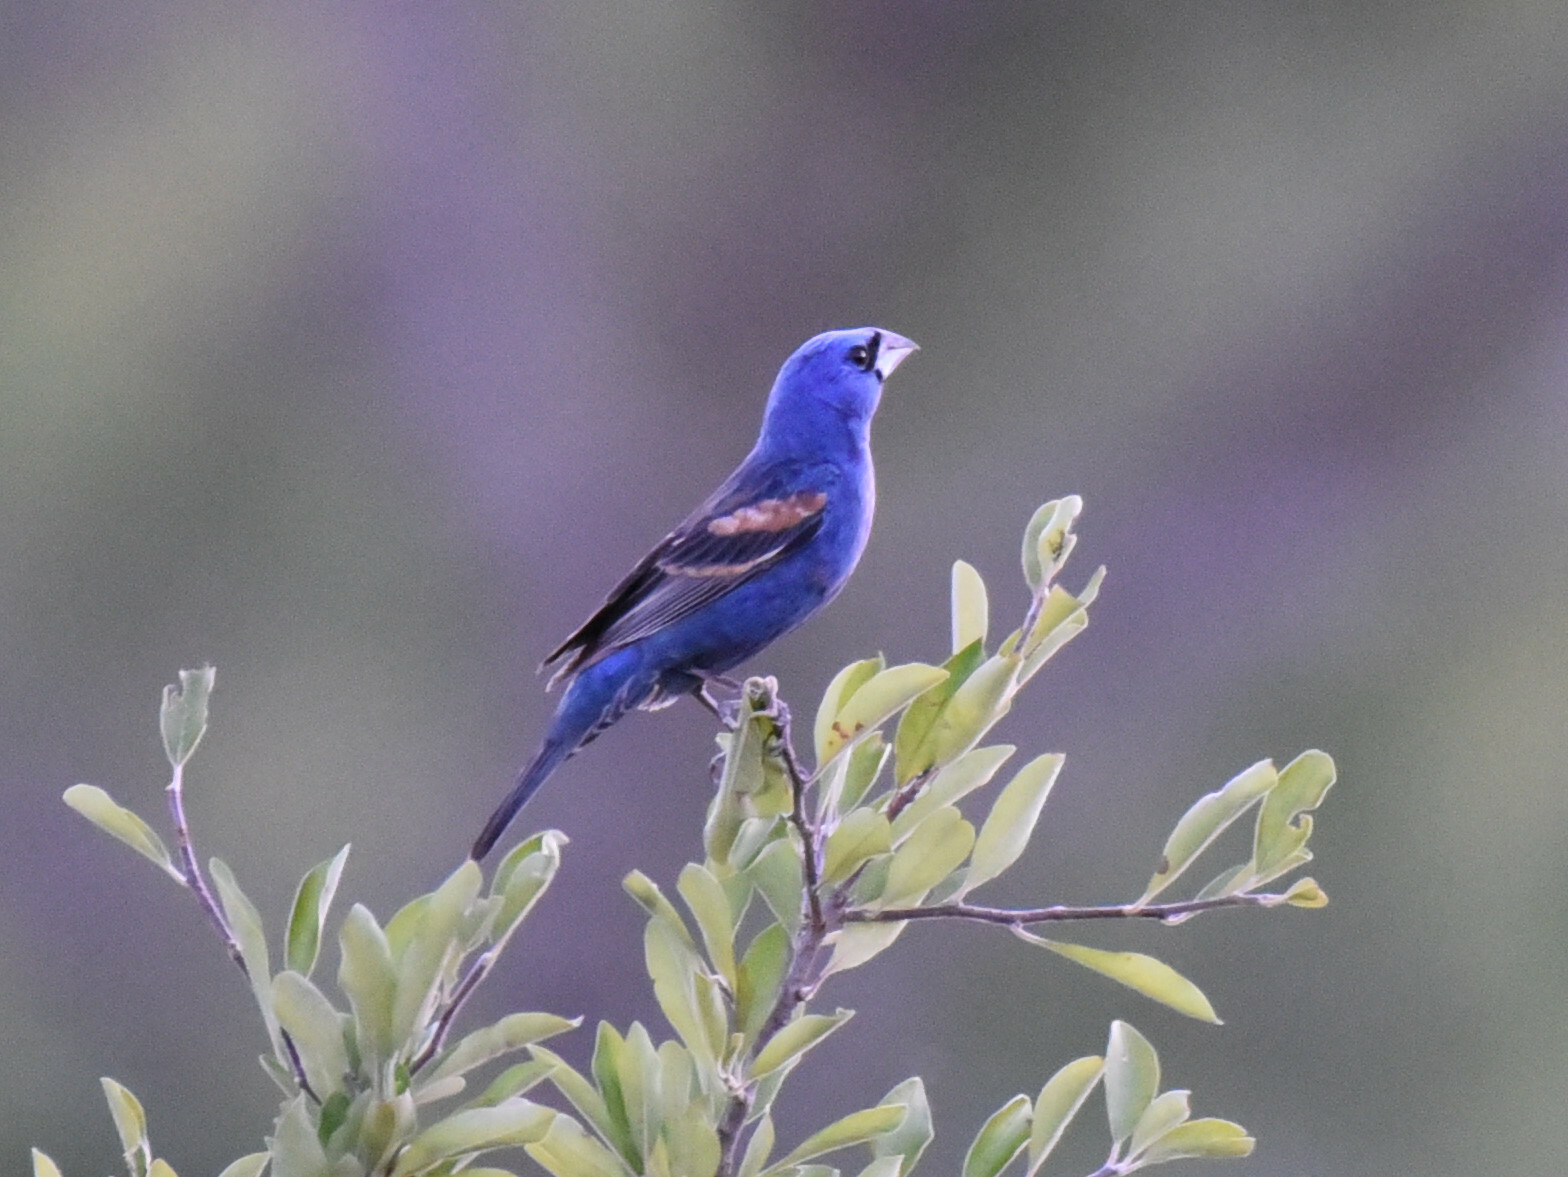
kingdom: Animalia
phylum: Chordata
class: Aves
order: Passeriformes
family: Cardinalidae
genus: Passerina
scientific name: Passerina caerulea
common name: Blue grosbeak
